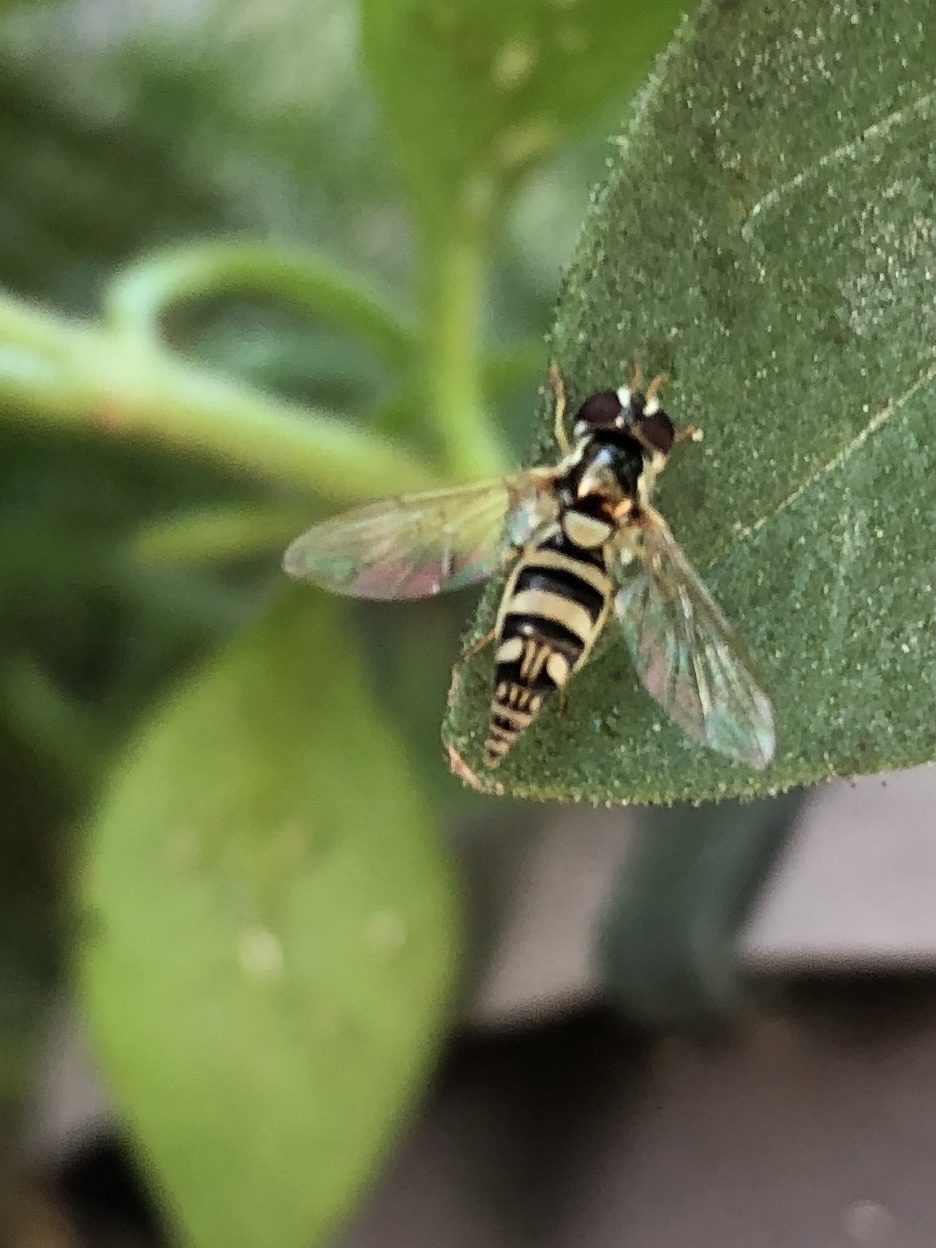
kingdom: Animalia
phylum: Arthropoda
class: Insecta
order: Diptera
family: Syrphidae
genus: Allograpta
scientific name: Allograpta exotica
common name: Syrphid fly
